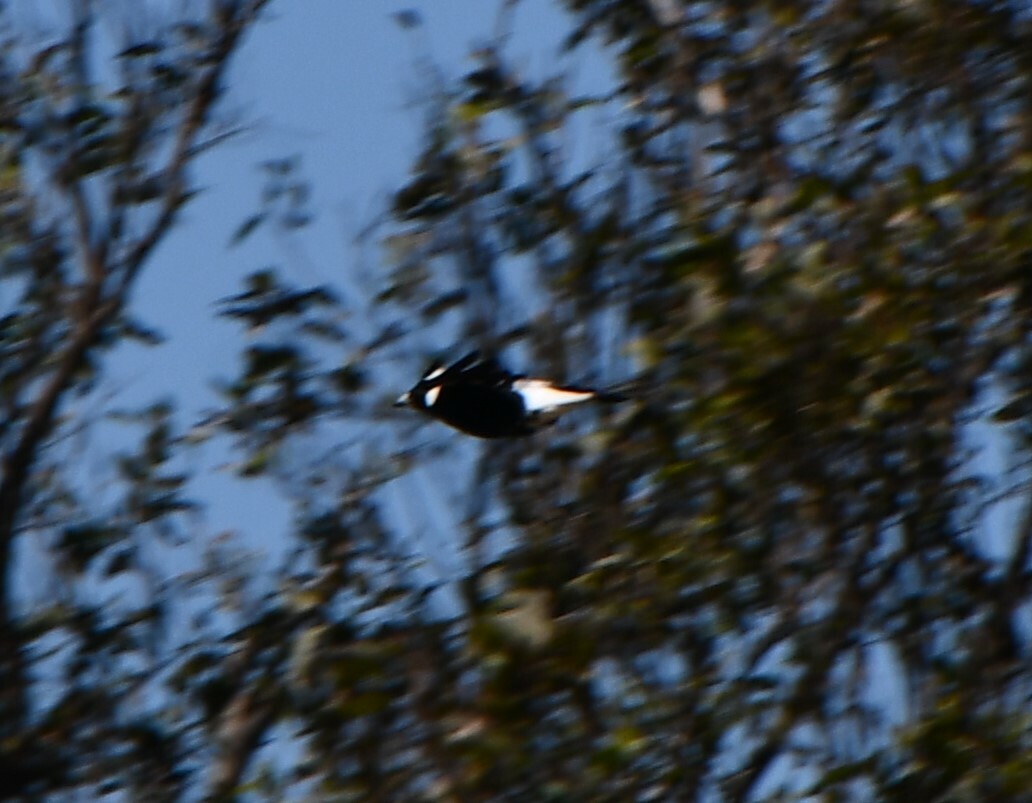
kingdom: Animalia
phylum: Chordata
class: Aves
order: Passeriformes
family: Cracticidae
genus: Gymnorhina
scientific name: Gymnorhina tibicen
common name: Australian magpie
